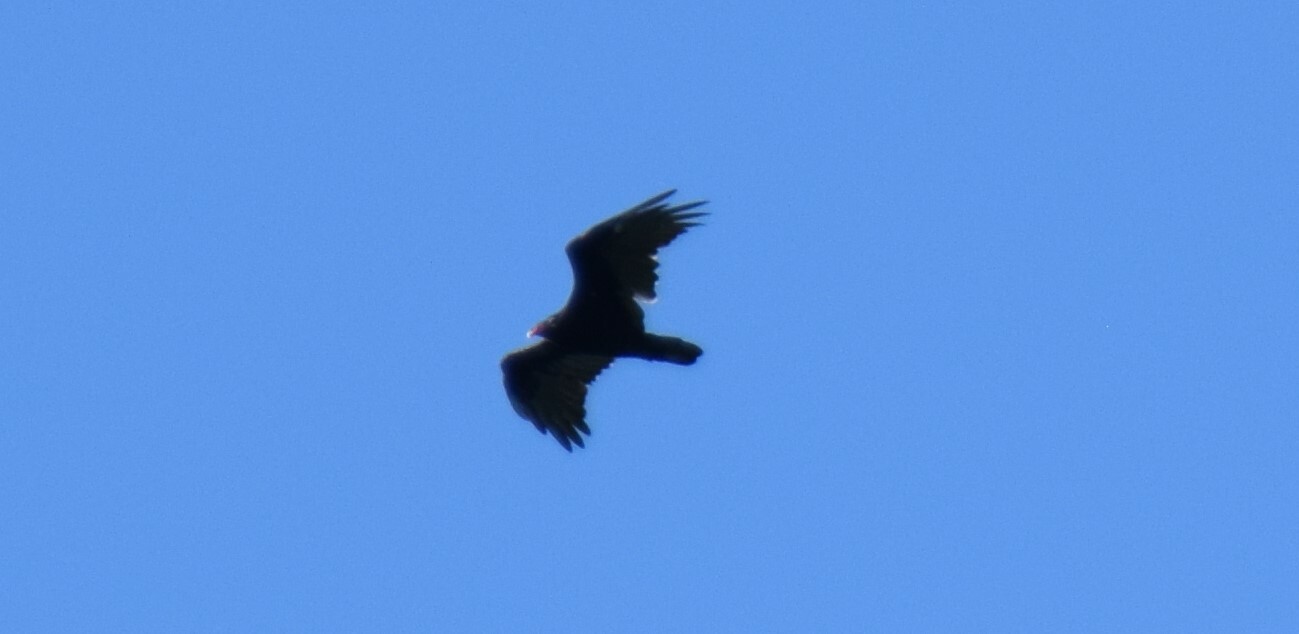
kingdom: Animalia
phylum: Chordata
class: Aves
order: Accipitriformes
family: Cathartidae
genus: Cathartes
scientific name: Cathartes aura
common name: Turkey vulture
